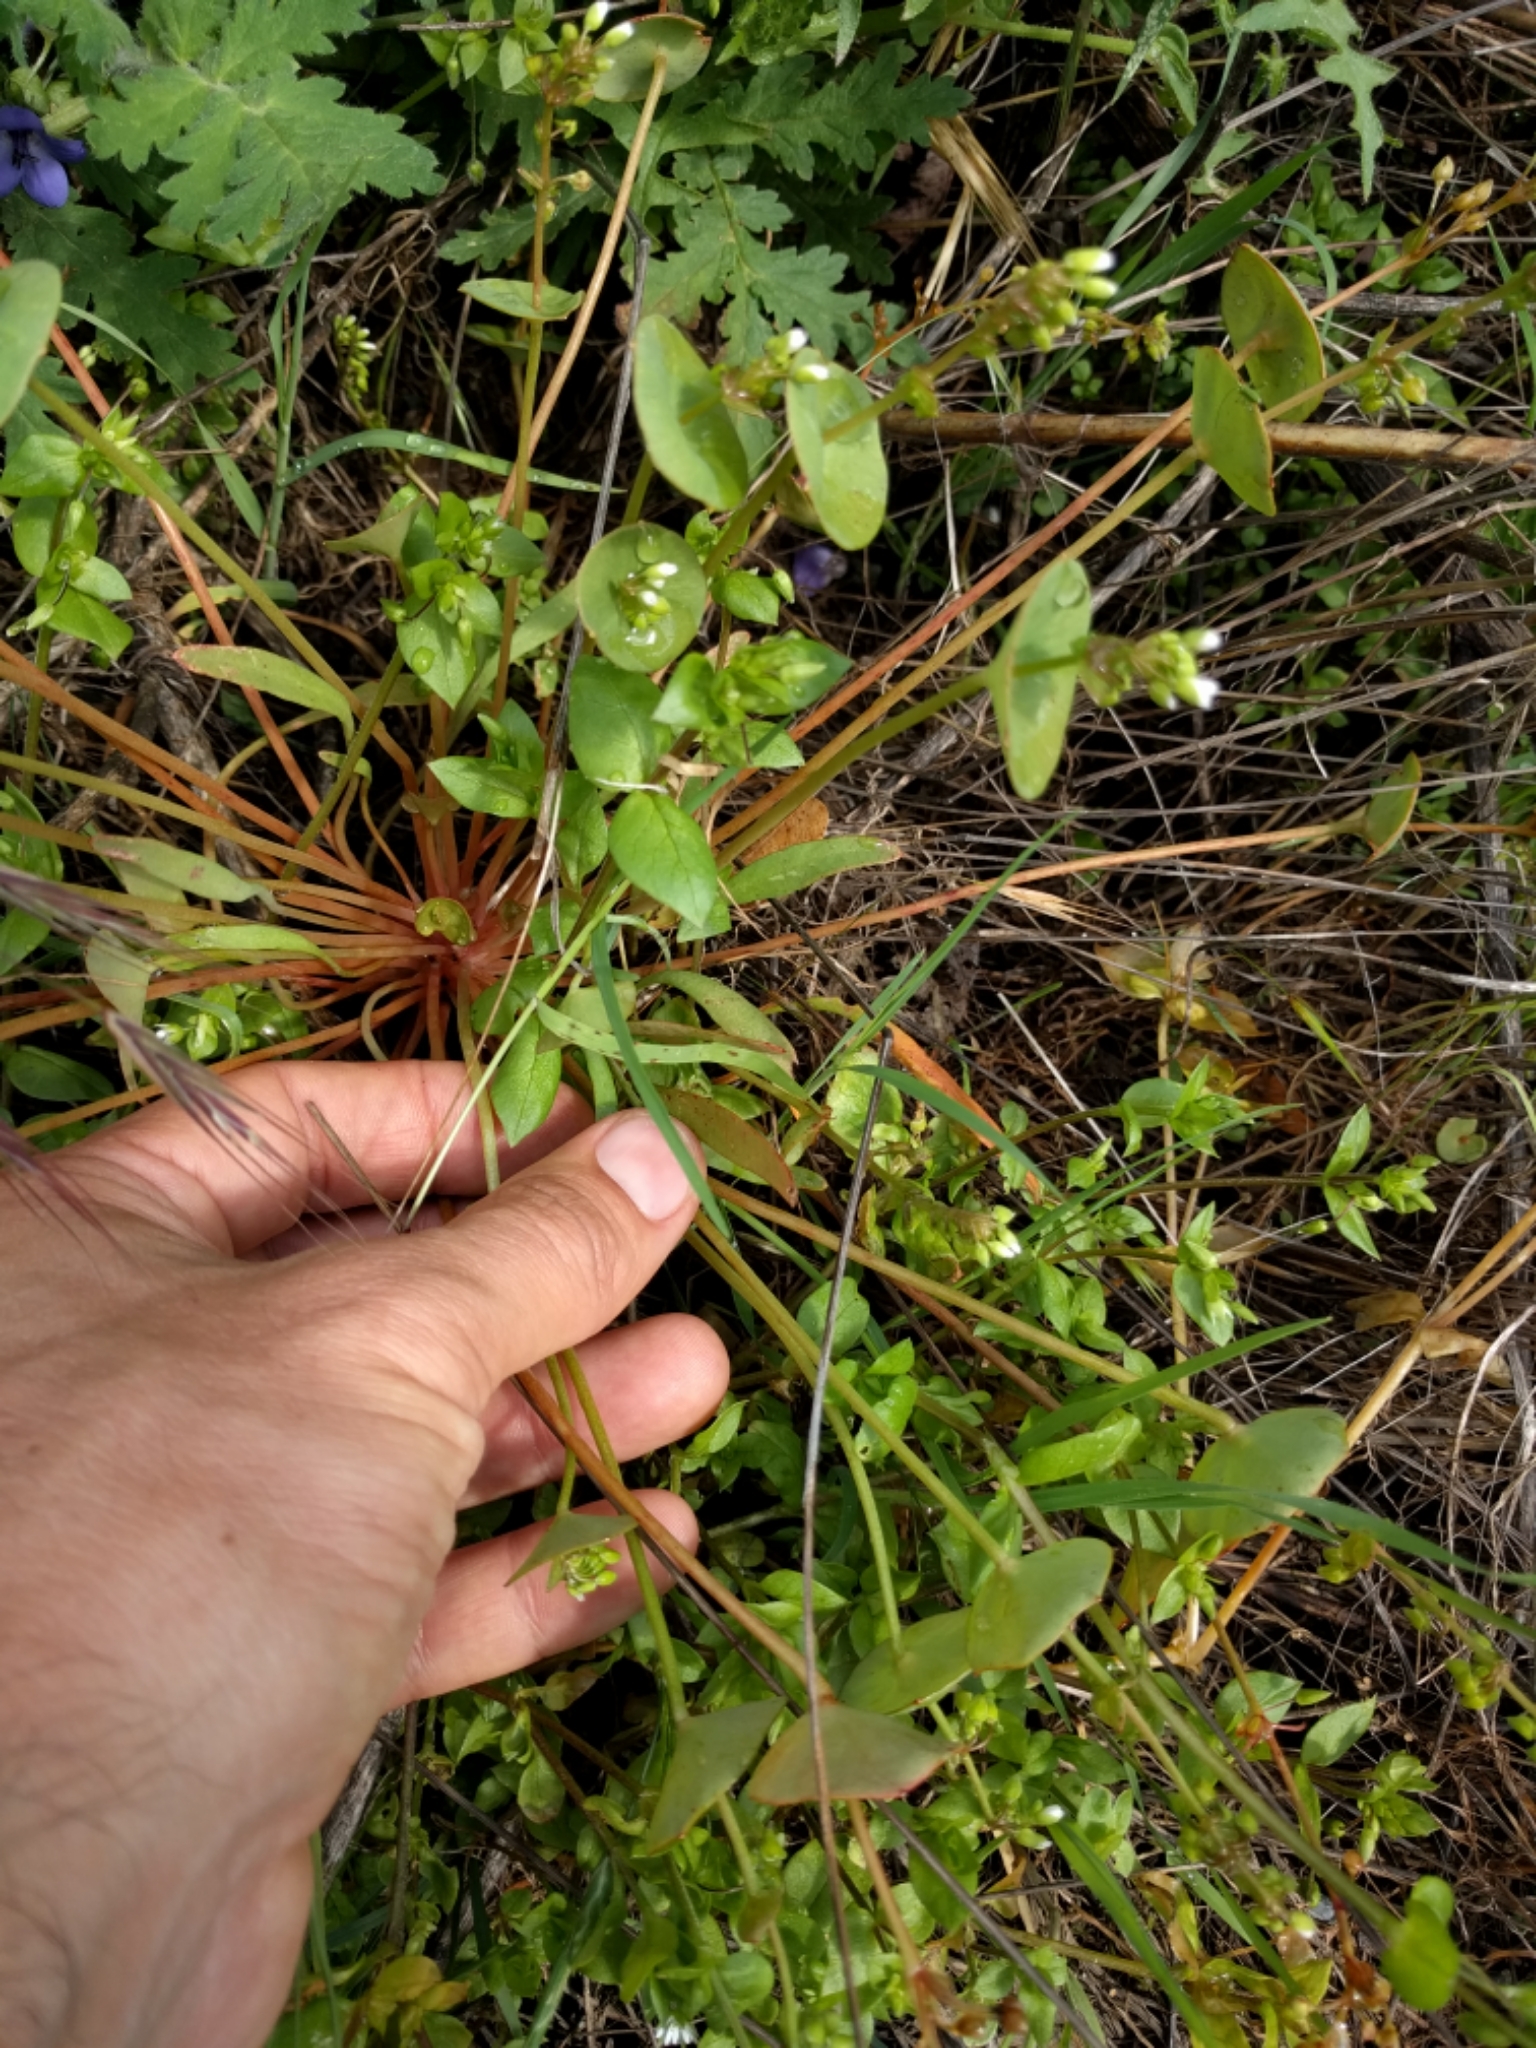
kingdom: Plantae
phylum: Tracheophyta
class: Magnoliopsida
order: Caryophyllales
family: Montiaceae
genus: Claytonia
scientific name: Claytonia parviflora
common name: Indian-lettuce
